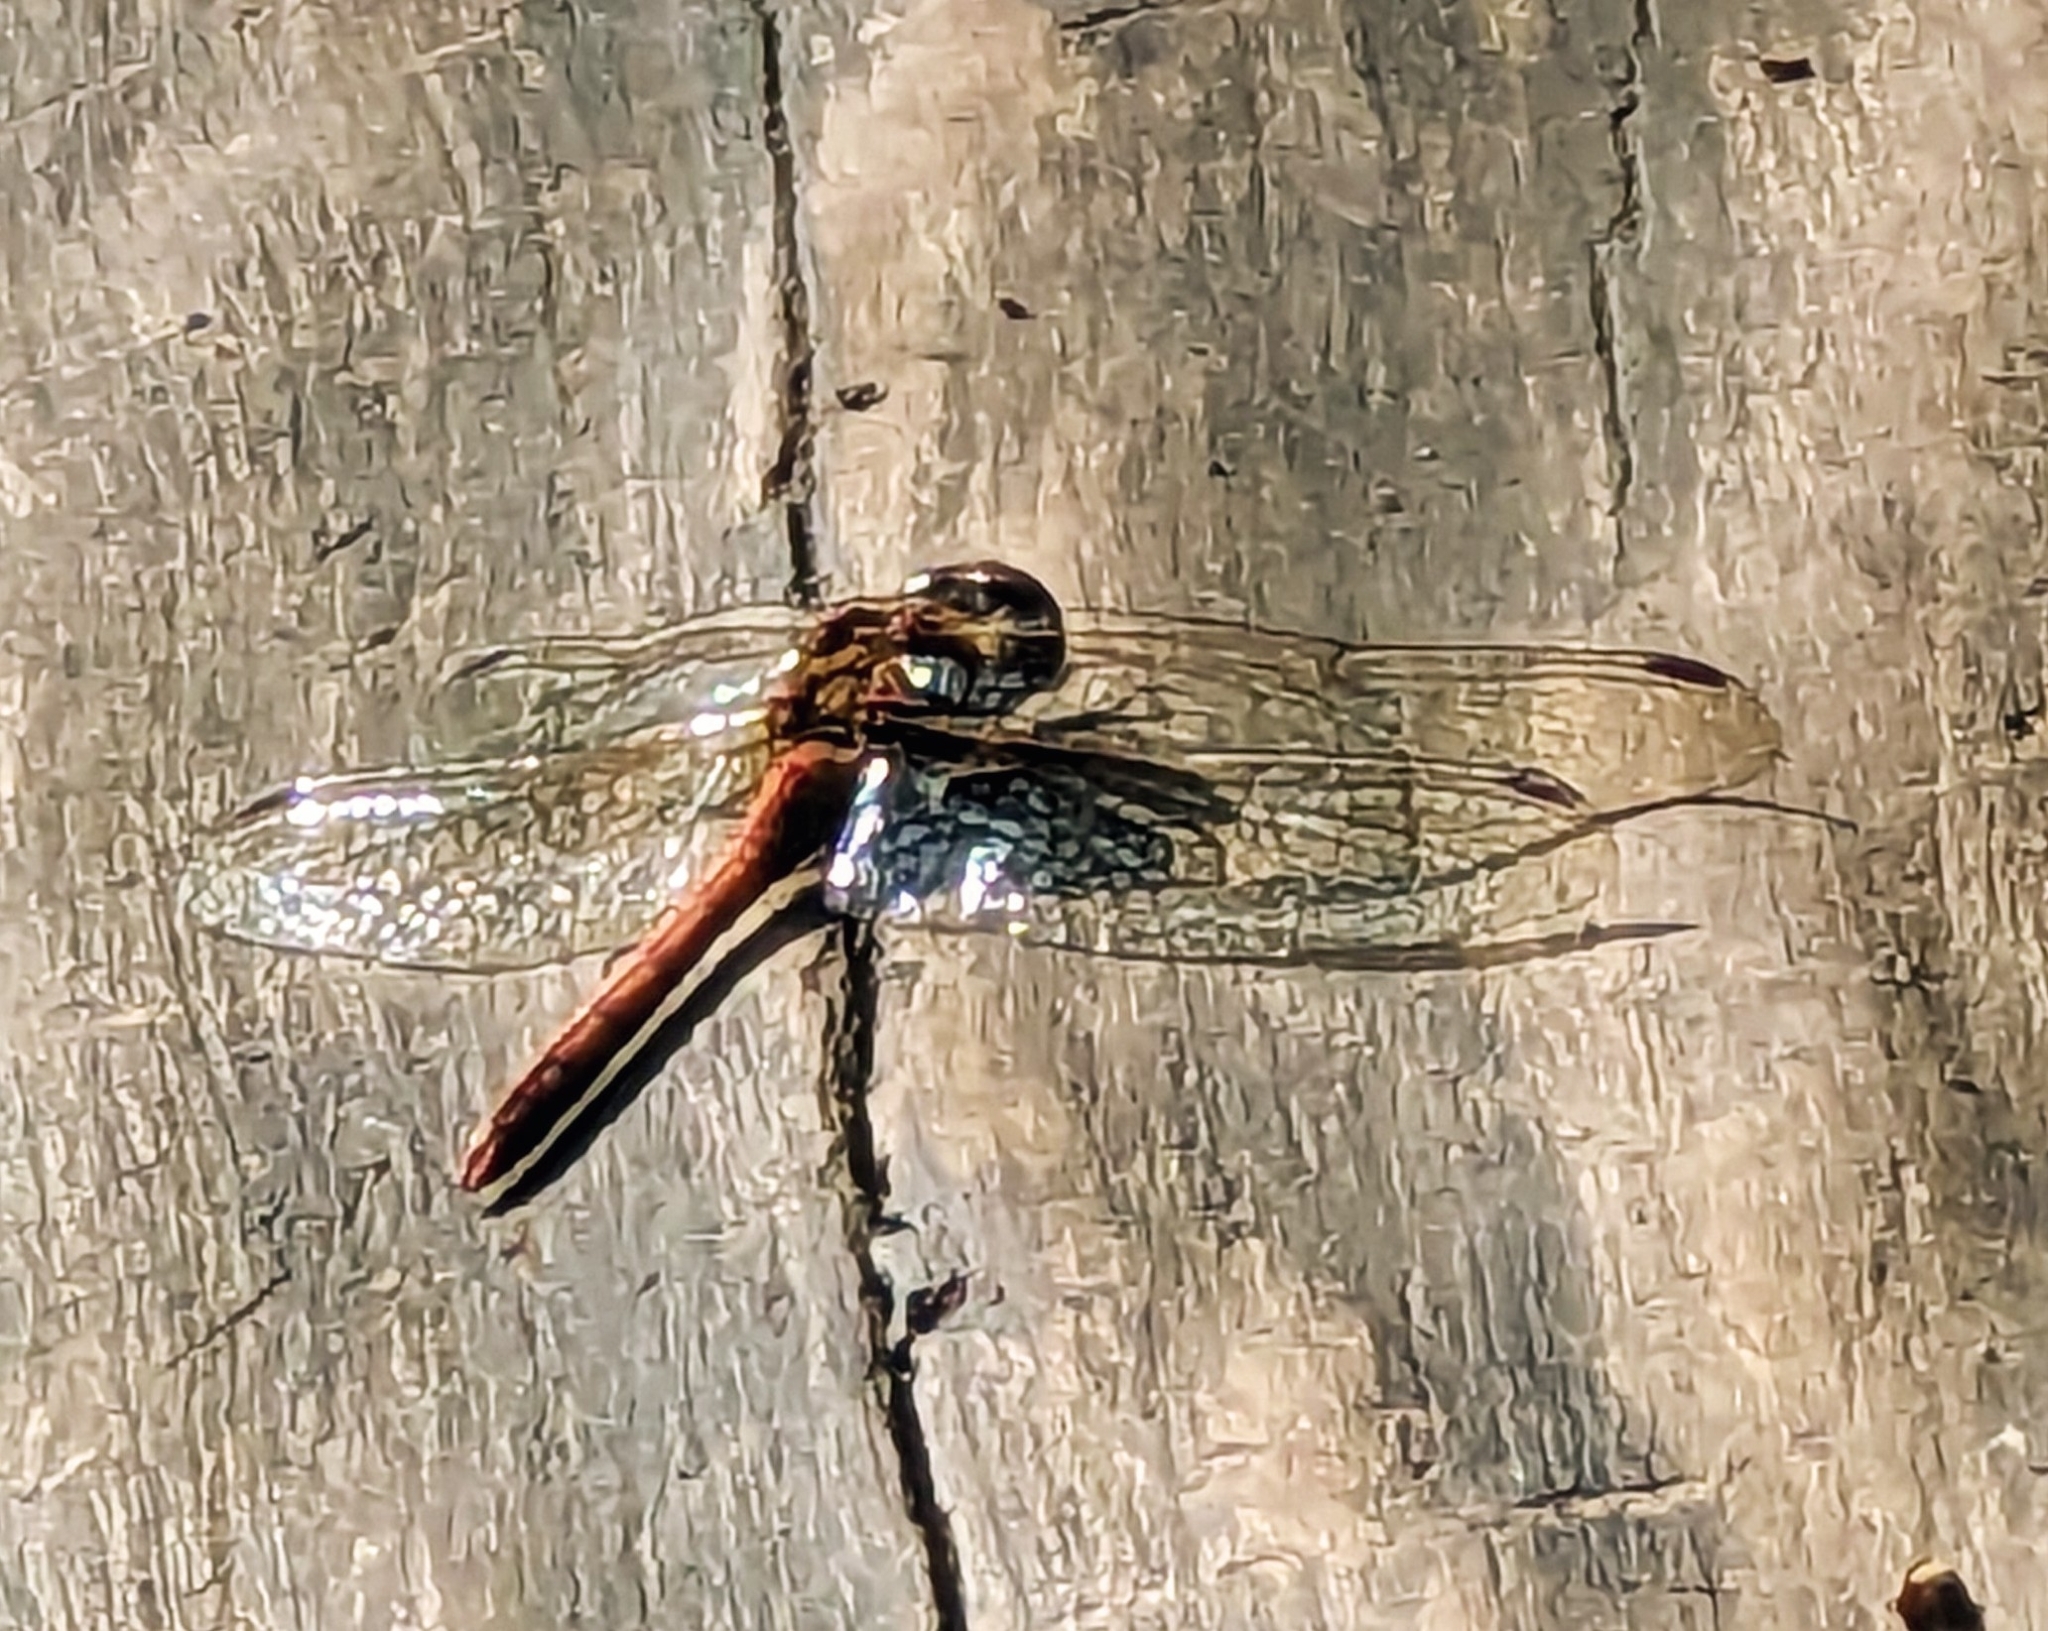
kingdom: Animalia
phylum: Arthropoda
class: Insecta
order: Odonata
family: Libellulidae
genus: Sympetrum
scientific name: Sympetrum striolatum
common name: Common darter
